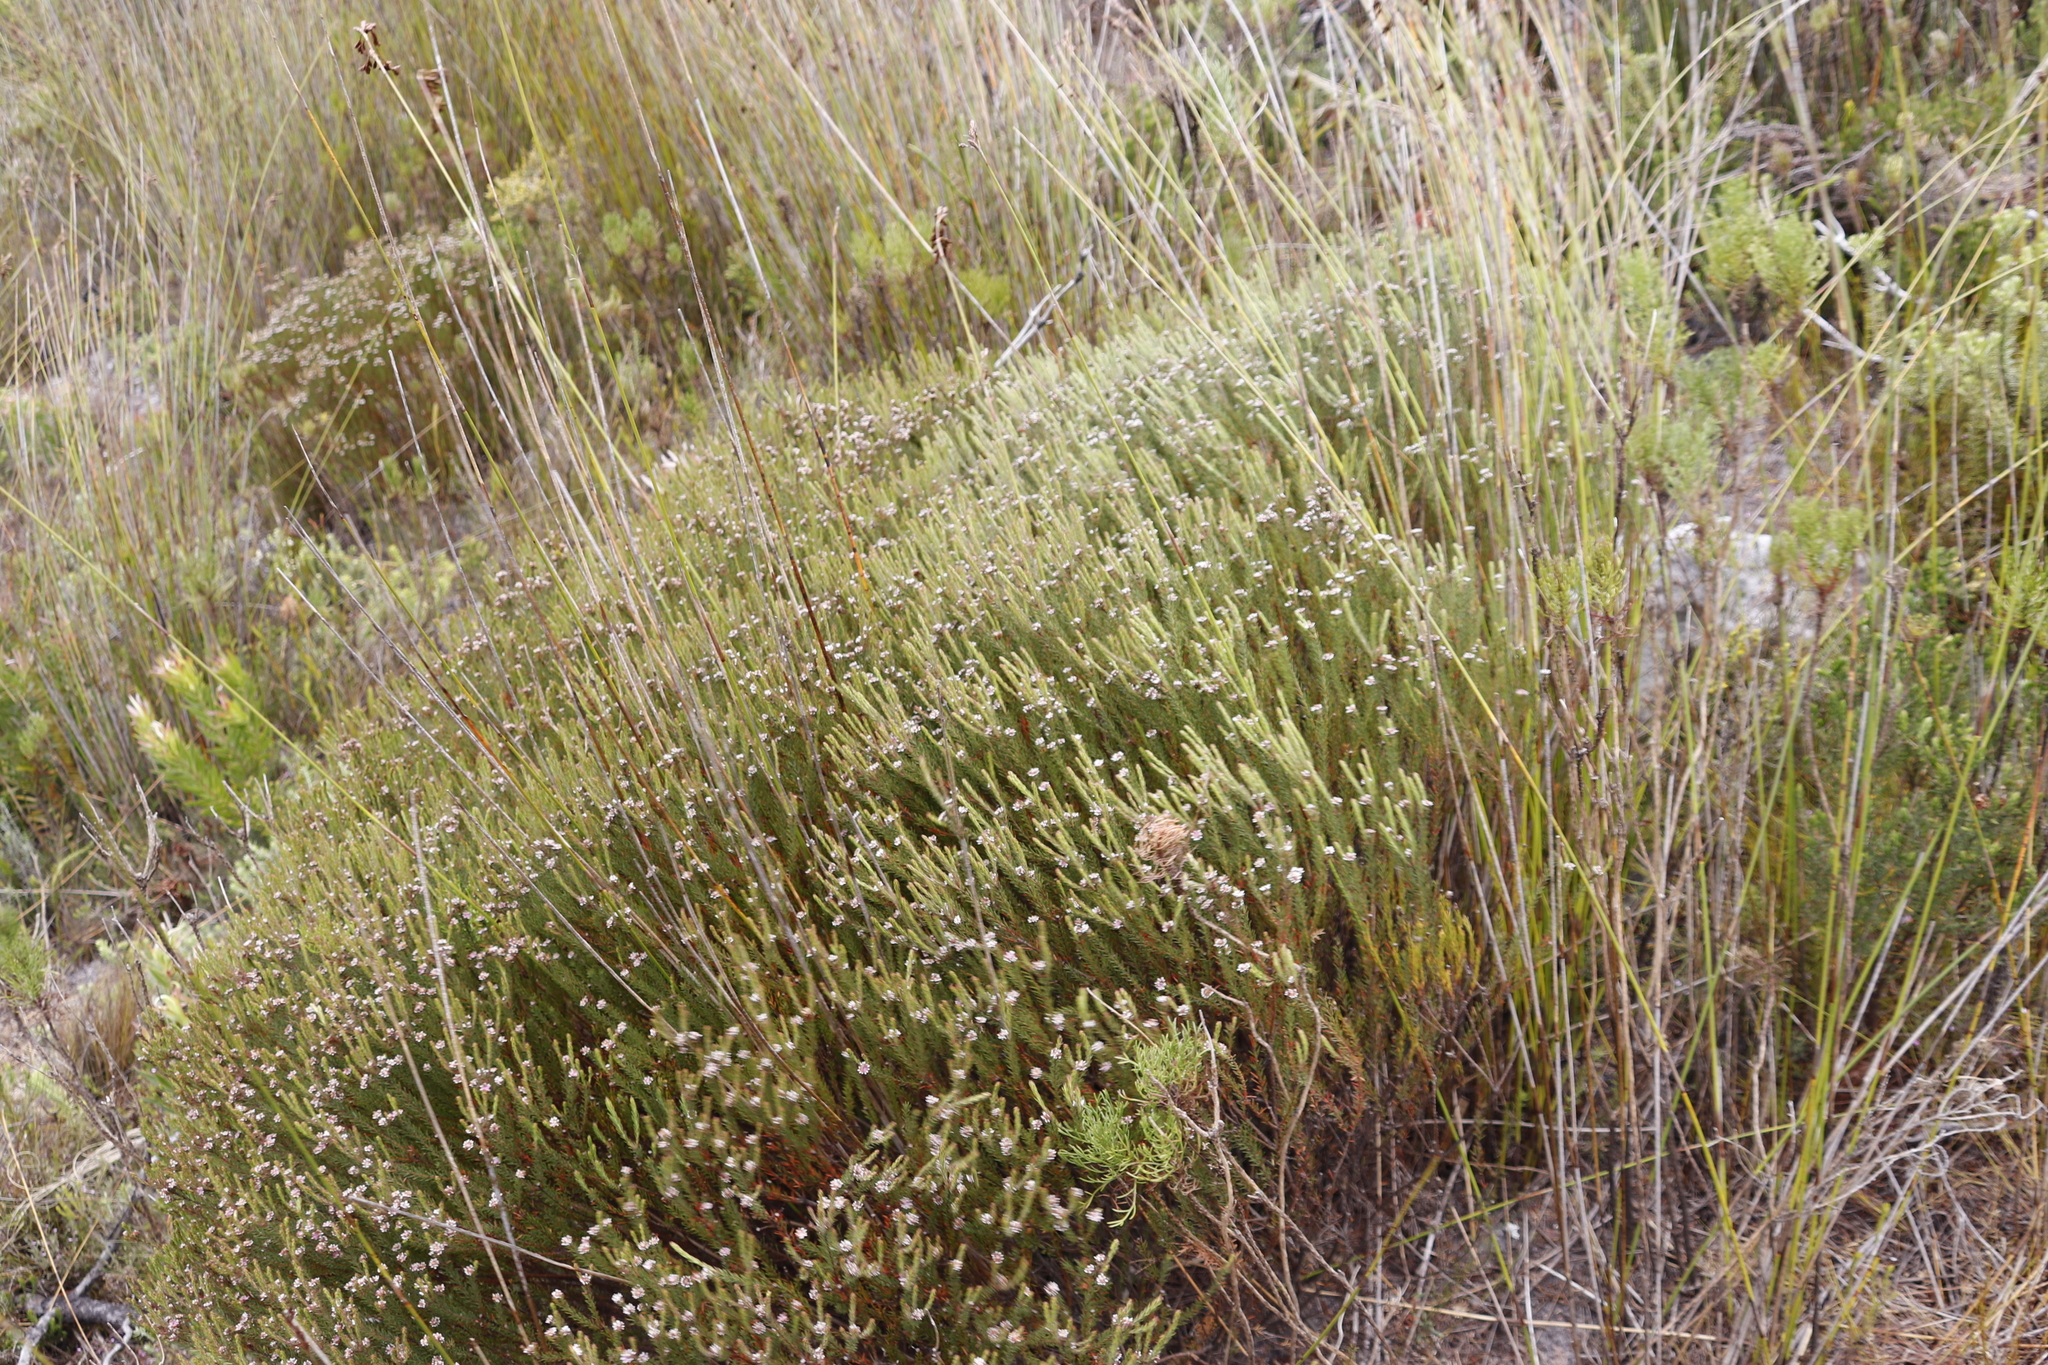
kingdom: Plantae
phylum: Tracheophyta
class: Magnoliopsida
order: Bruniales
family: Bruniaceae
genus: Staavia
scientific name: Staavia radiata
